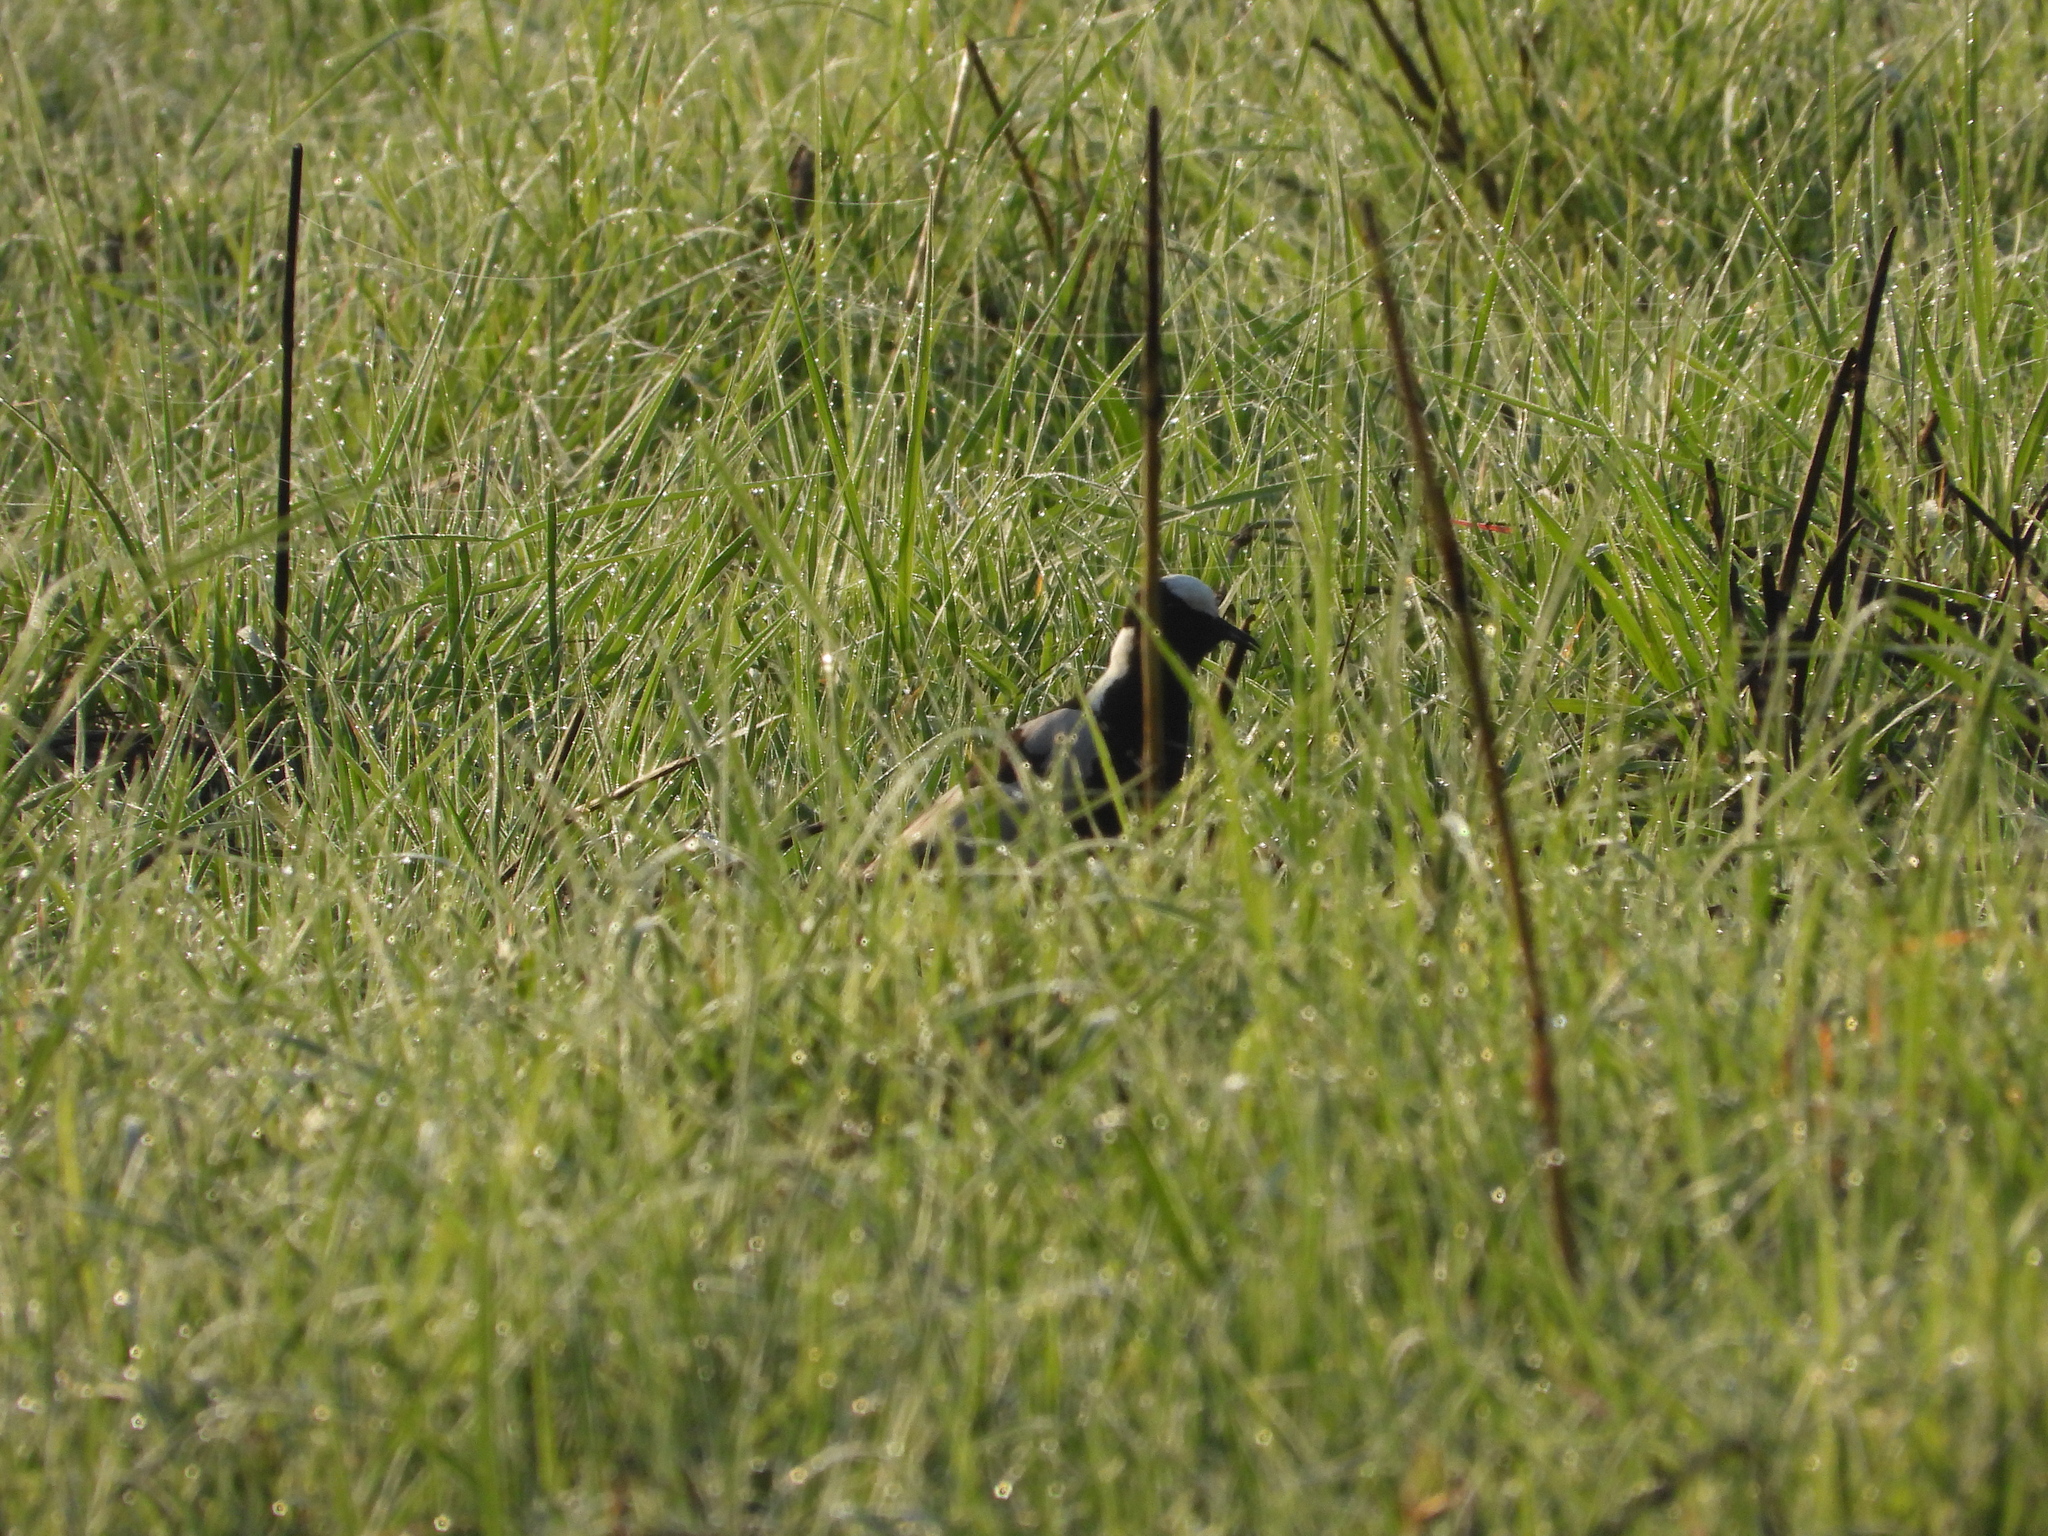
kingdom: Animalia
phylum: Chordata
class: Aves
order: Charadriiformes
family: Charadriidae
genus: Vanellus
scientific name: Vanellus armatus
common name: Blacksmith lapwing
